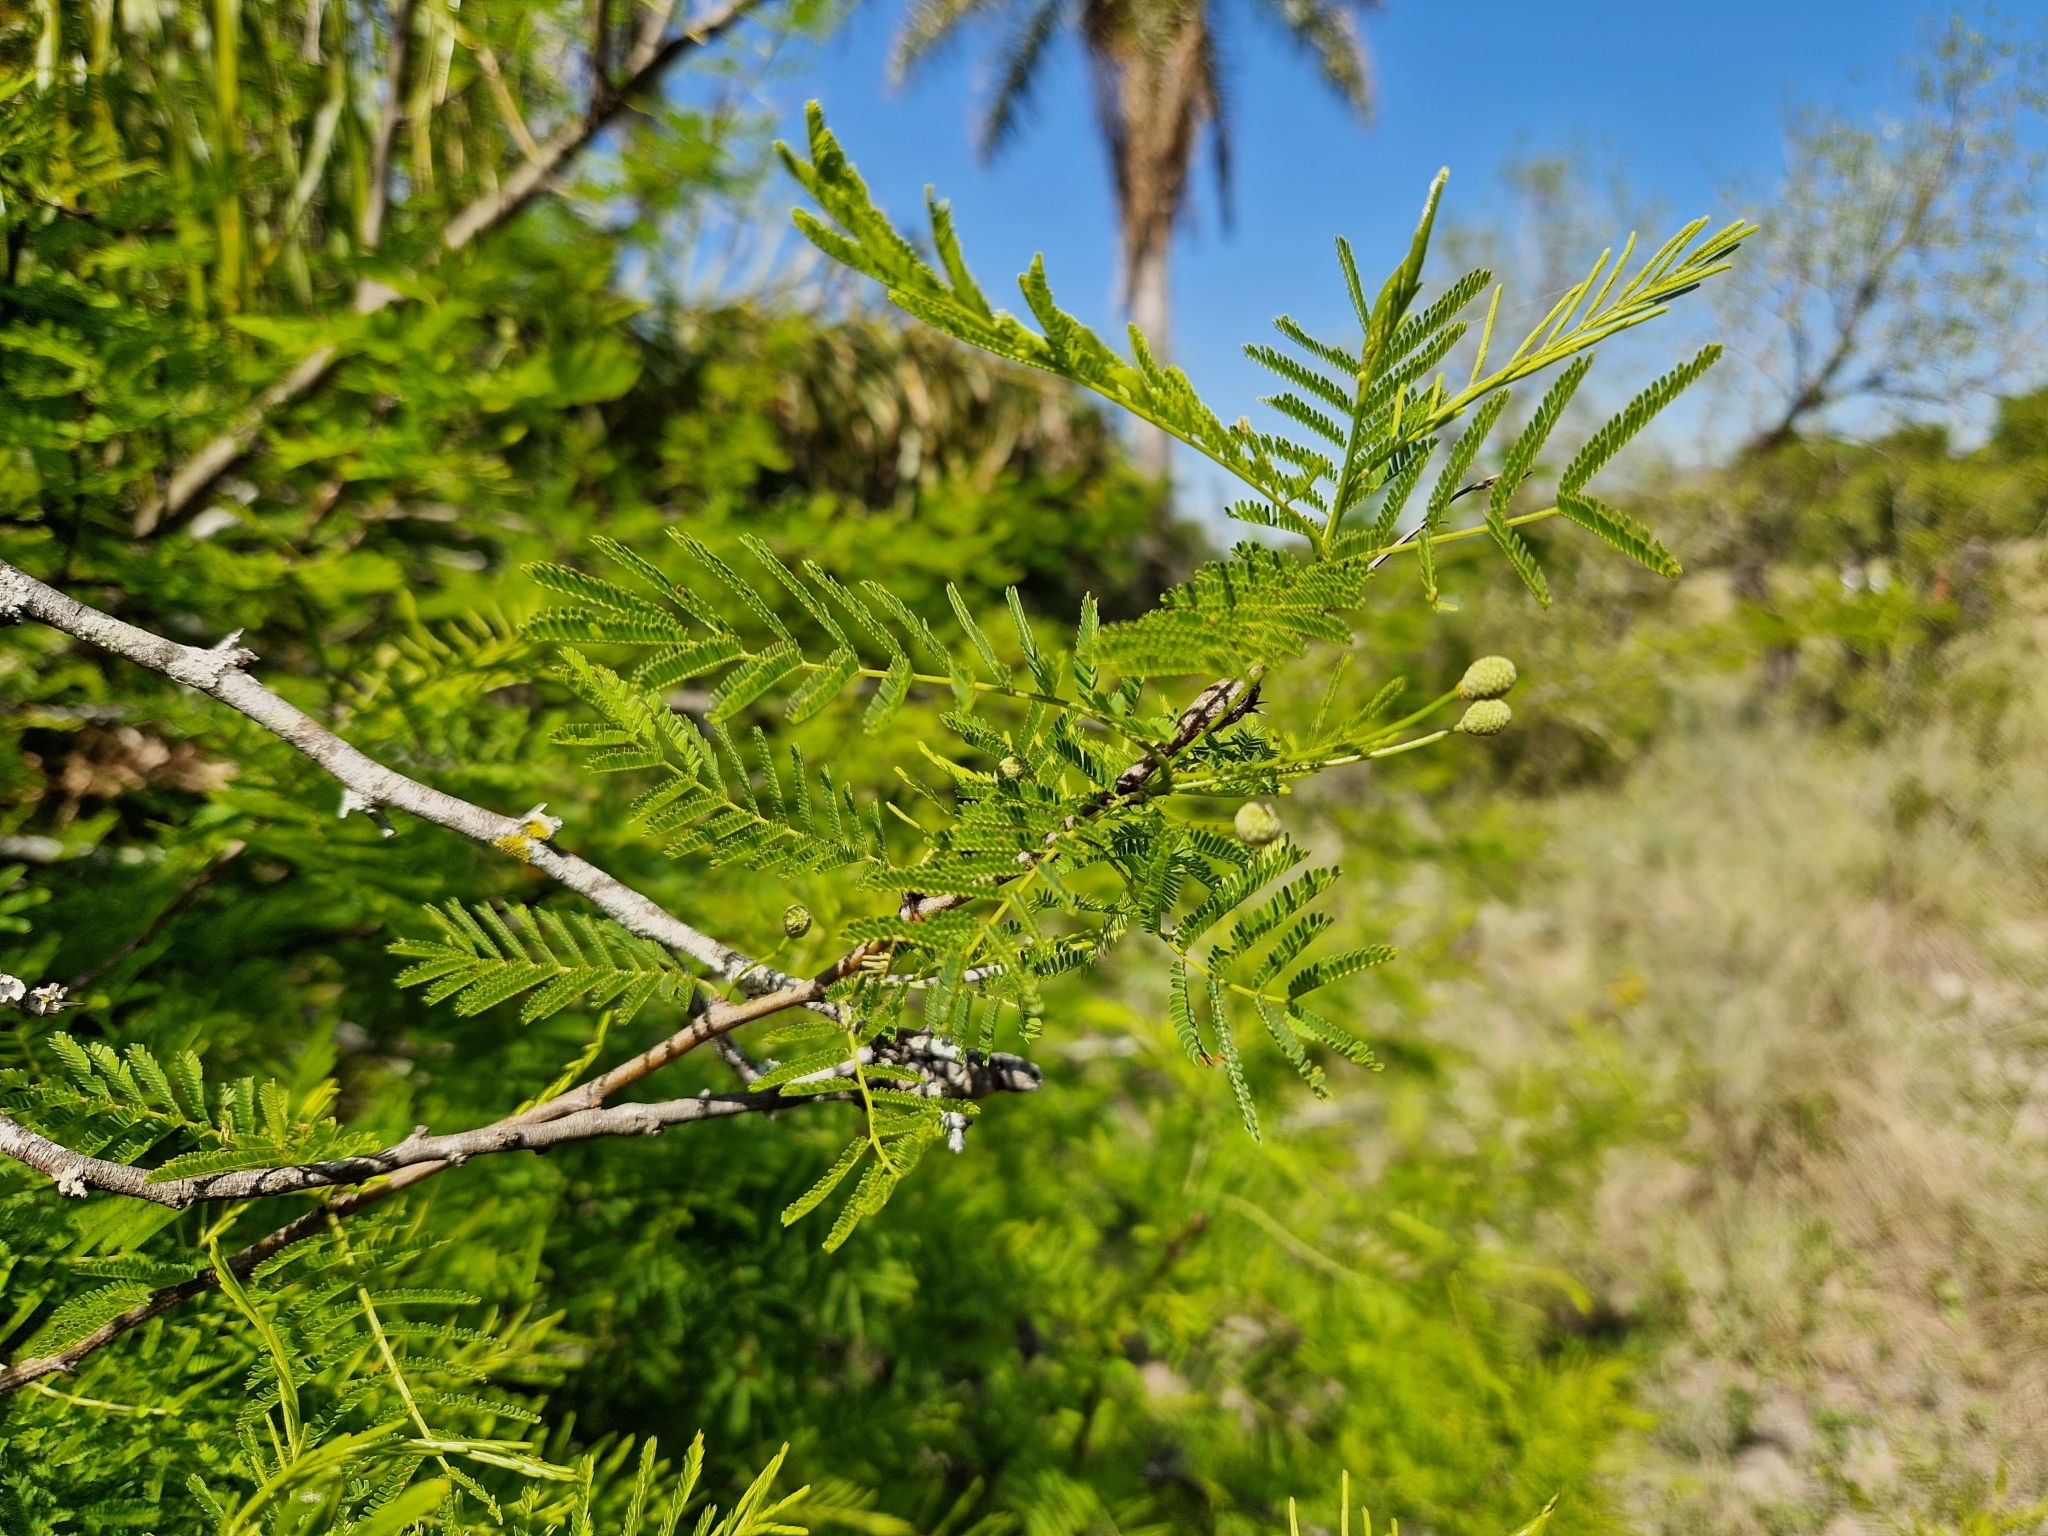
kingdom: Plantae
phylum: Tracheophyta
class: Magnoliopsida
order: Fabales
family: Fabaceae
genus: Vachellia
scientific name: Vachellia caven
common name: Roman cassie
